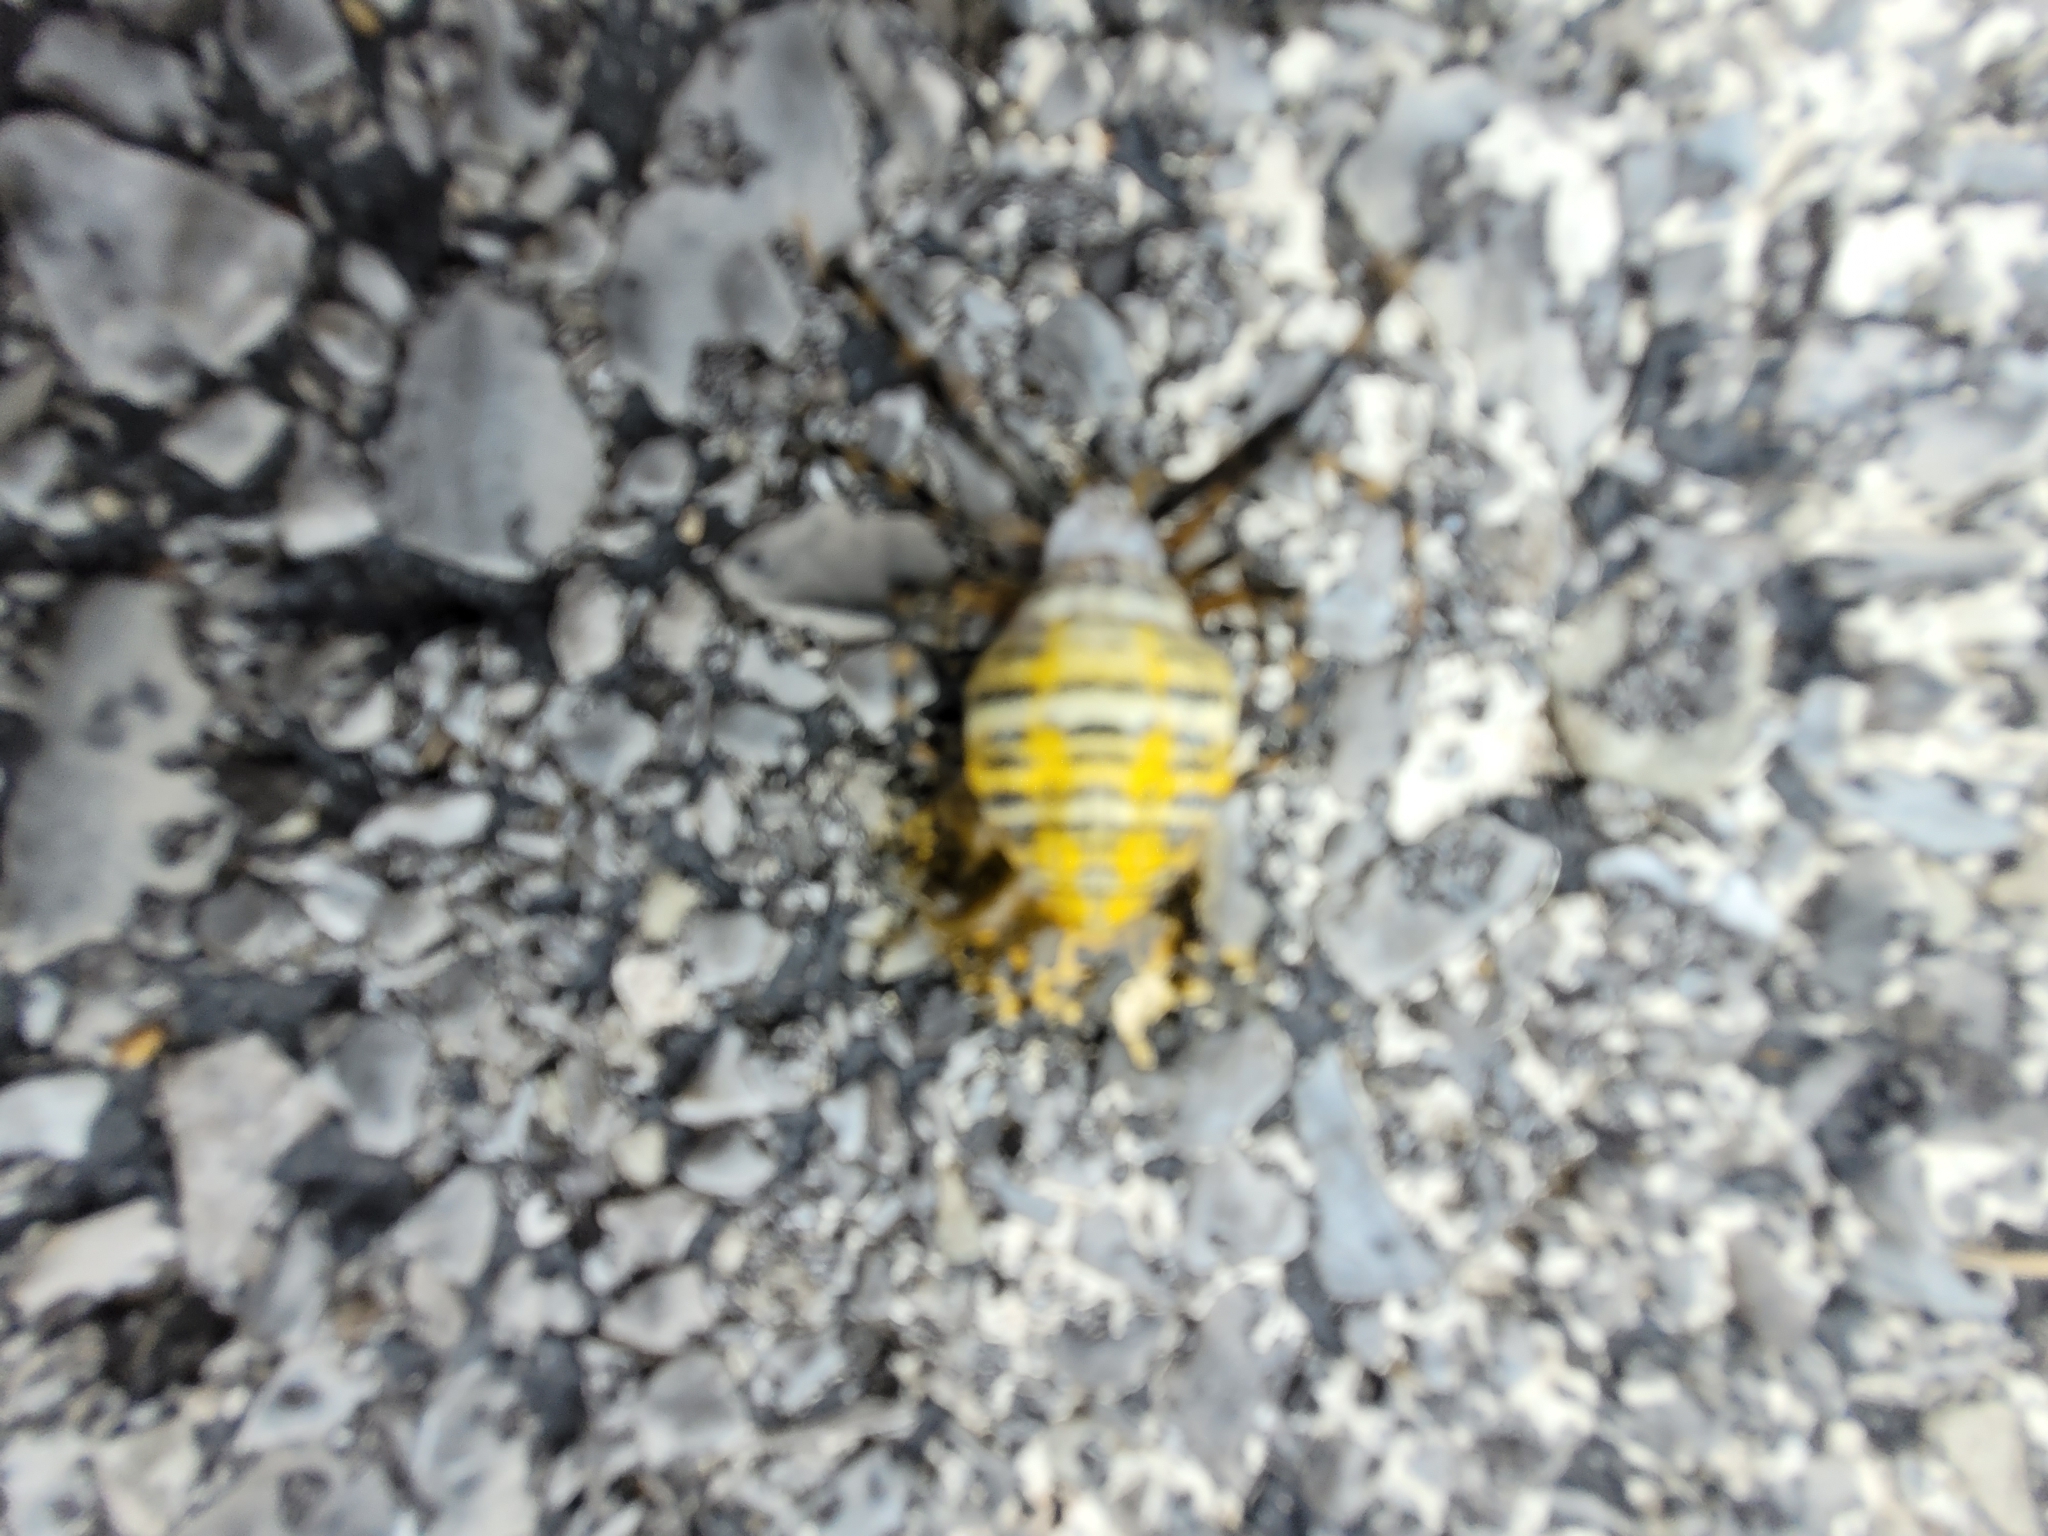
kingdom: Animalia
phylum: Arthropoda
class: Arachnida
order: Araneae
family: Araneidae
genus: Argiope
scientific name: Argiope trifasciata
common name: Banded garden spider
